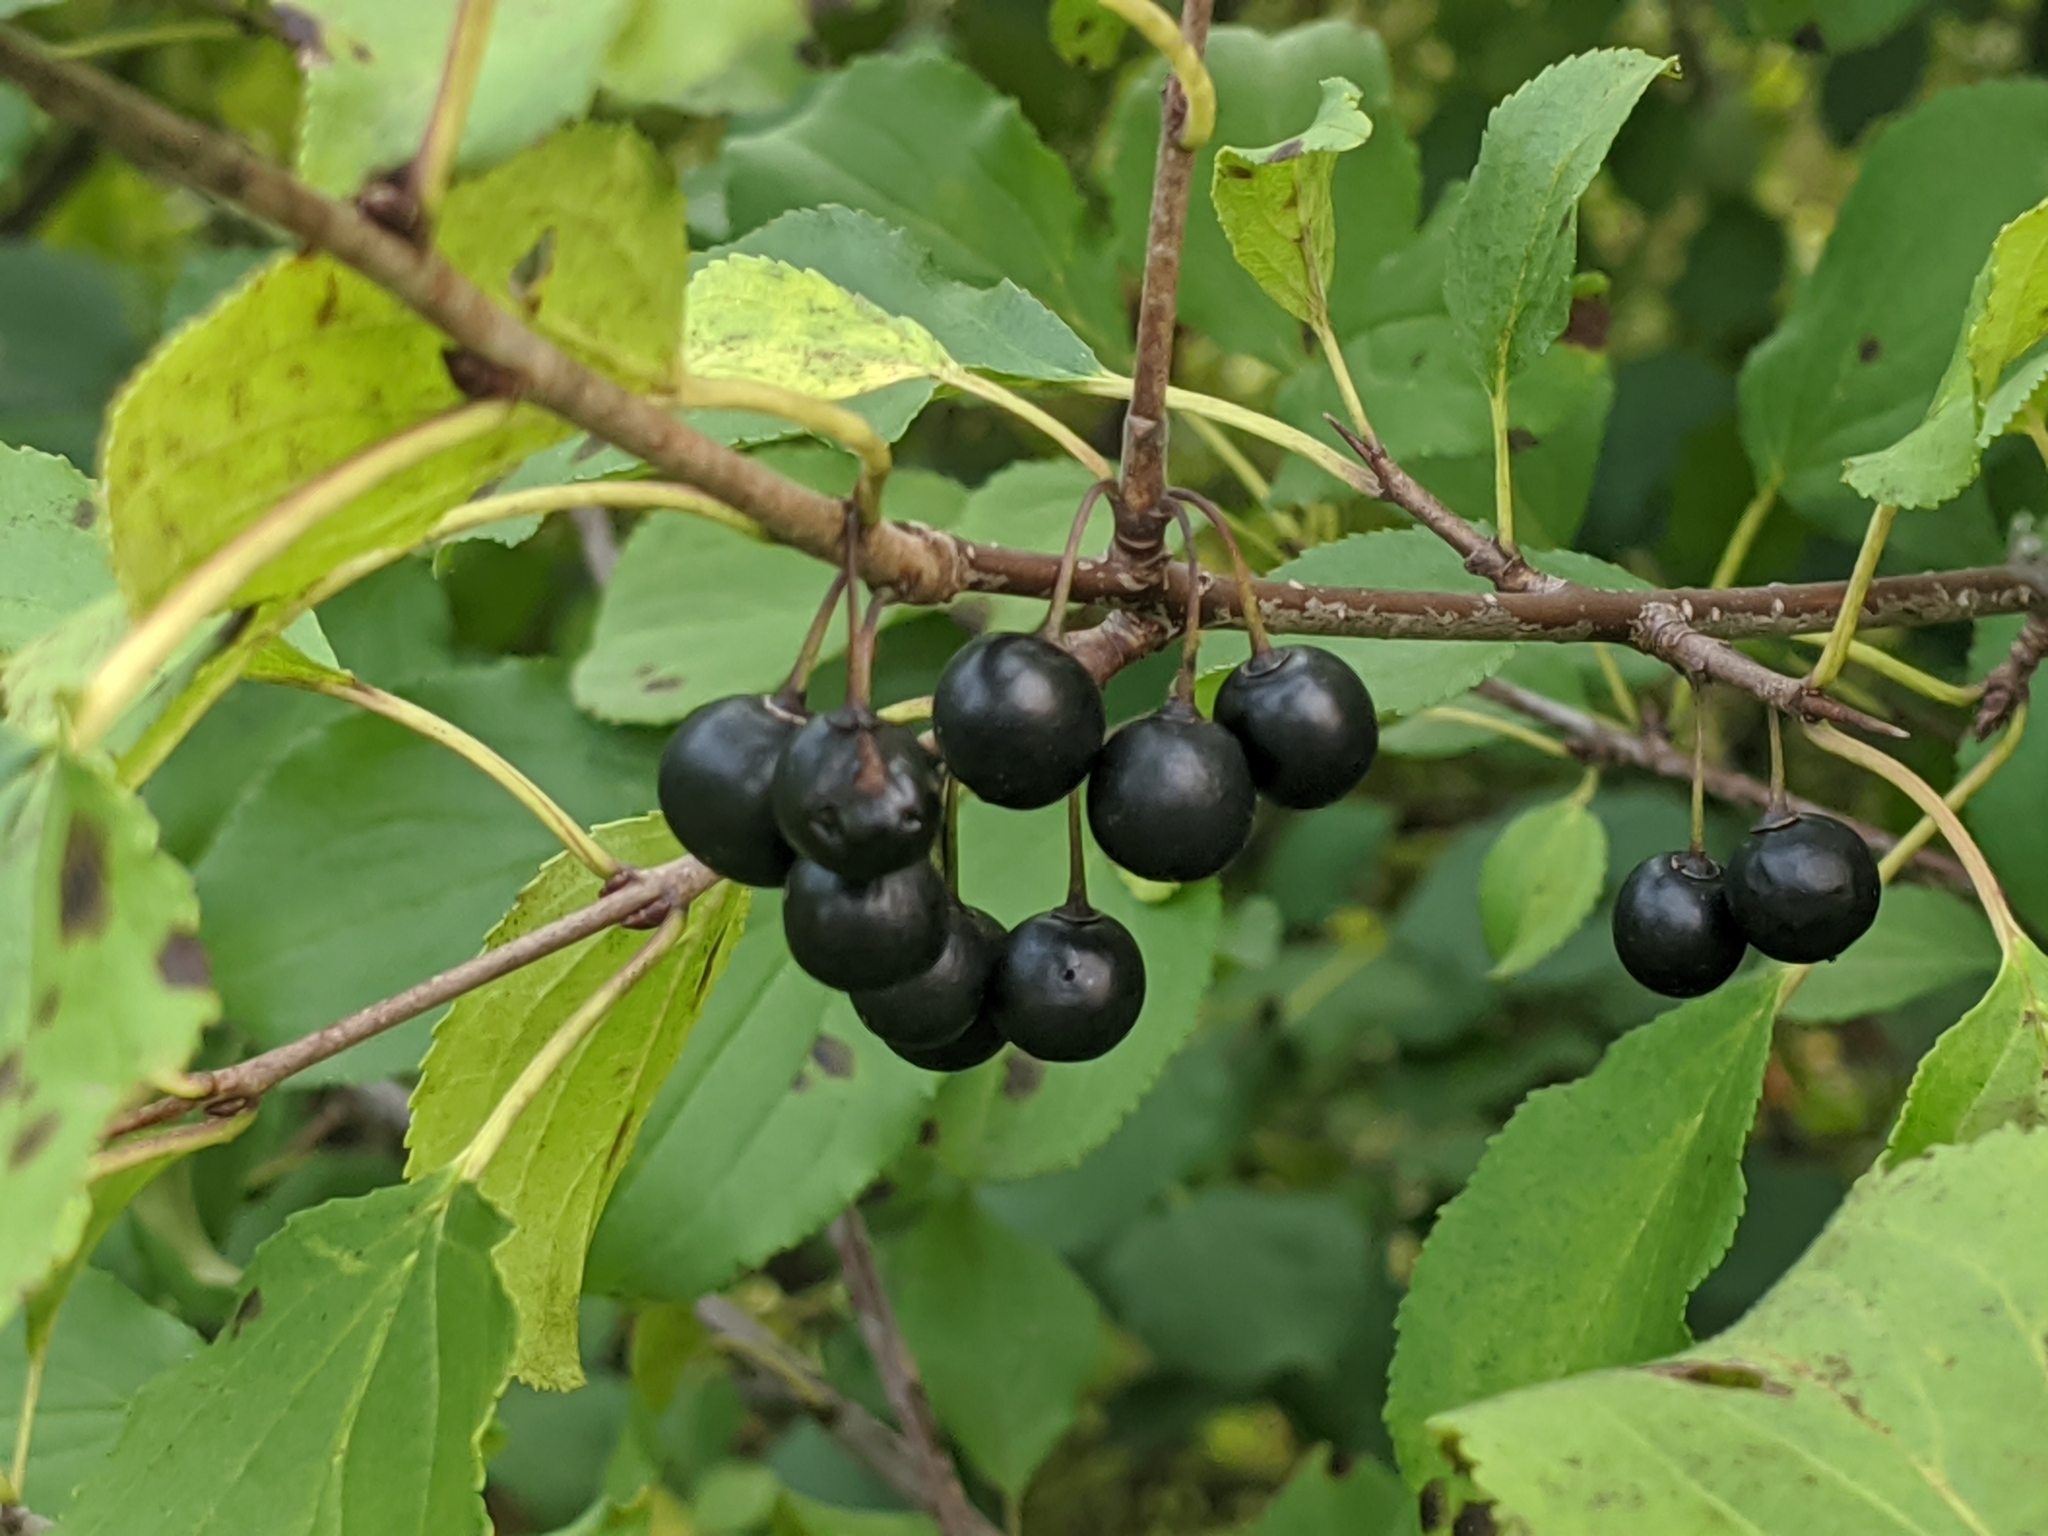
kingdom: Plantae
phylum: Tracheophyta
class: Magnoliopsida
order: Rosales
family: Rhamnaceae
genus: Rhamnus
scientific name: Rhamnus cathartica
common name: Common buckthorn
